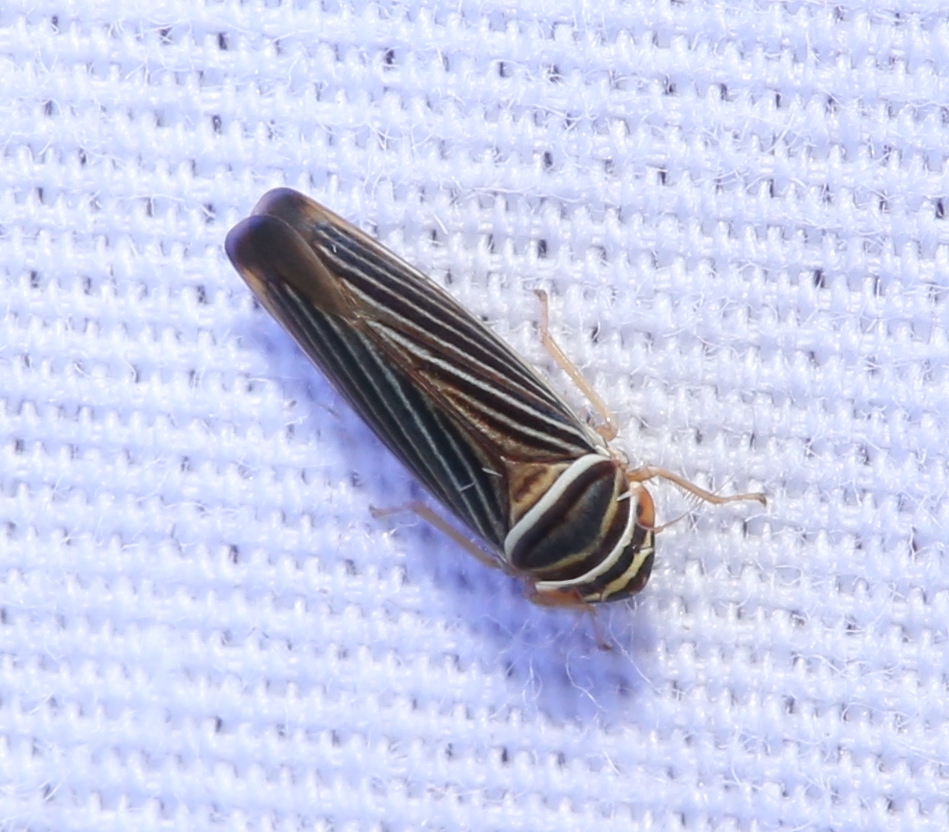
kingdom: Animalia
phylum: Arthropoda
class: Insecta
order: Hemiptera
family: Cicadellidae
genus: Tylozygus
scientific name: Tylozygus bifidus
